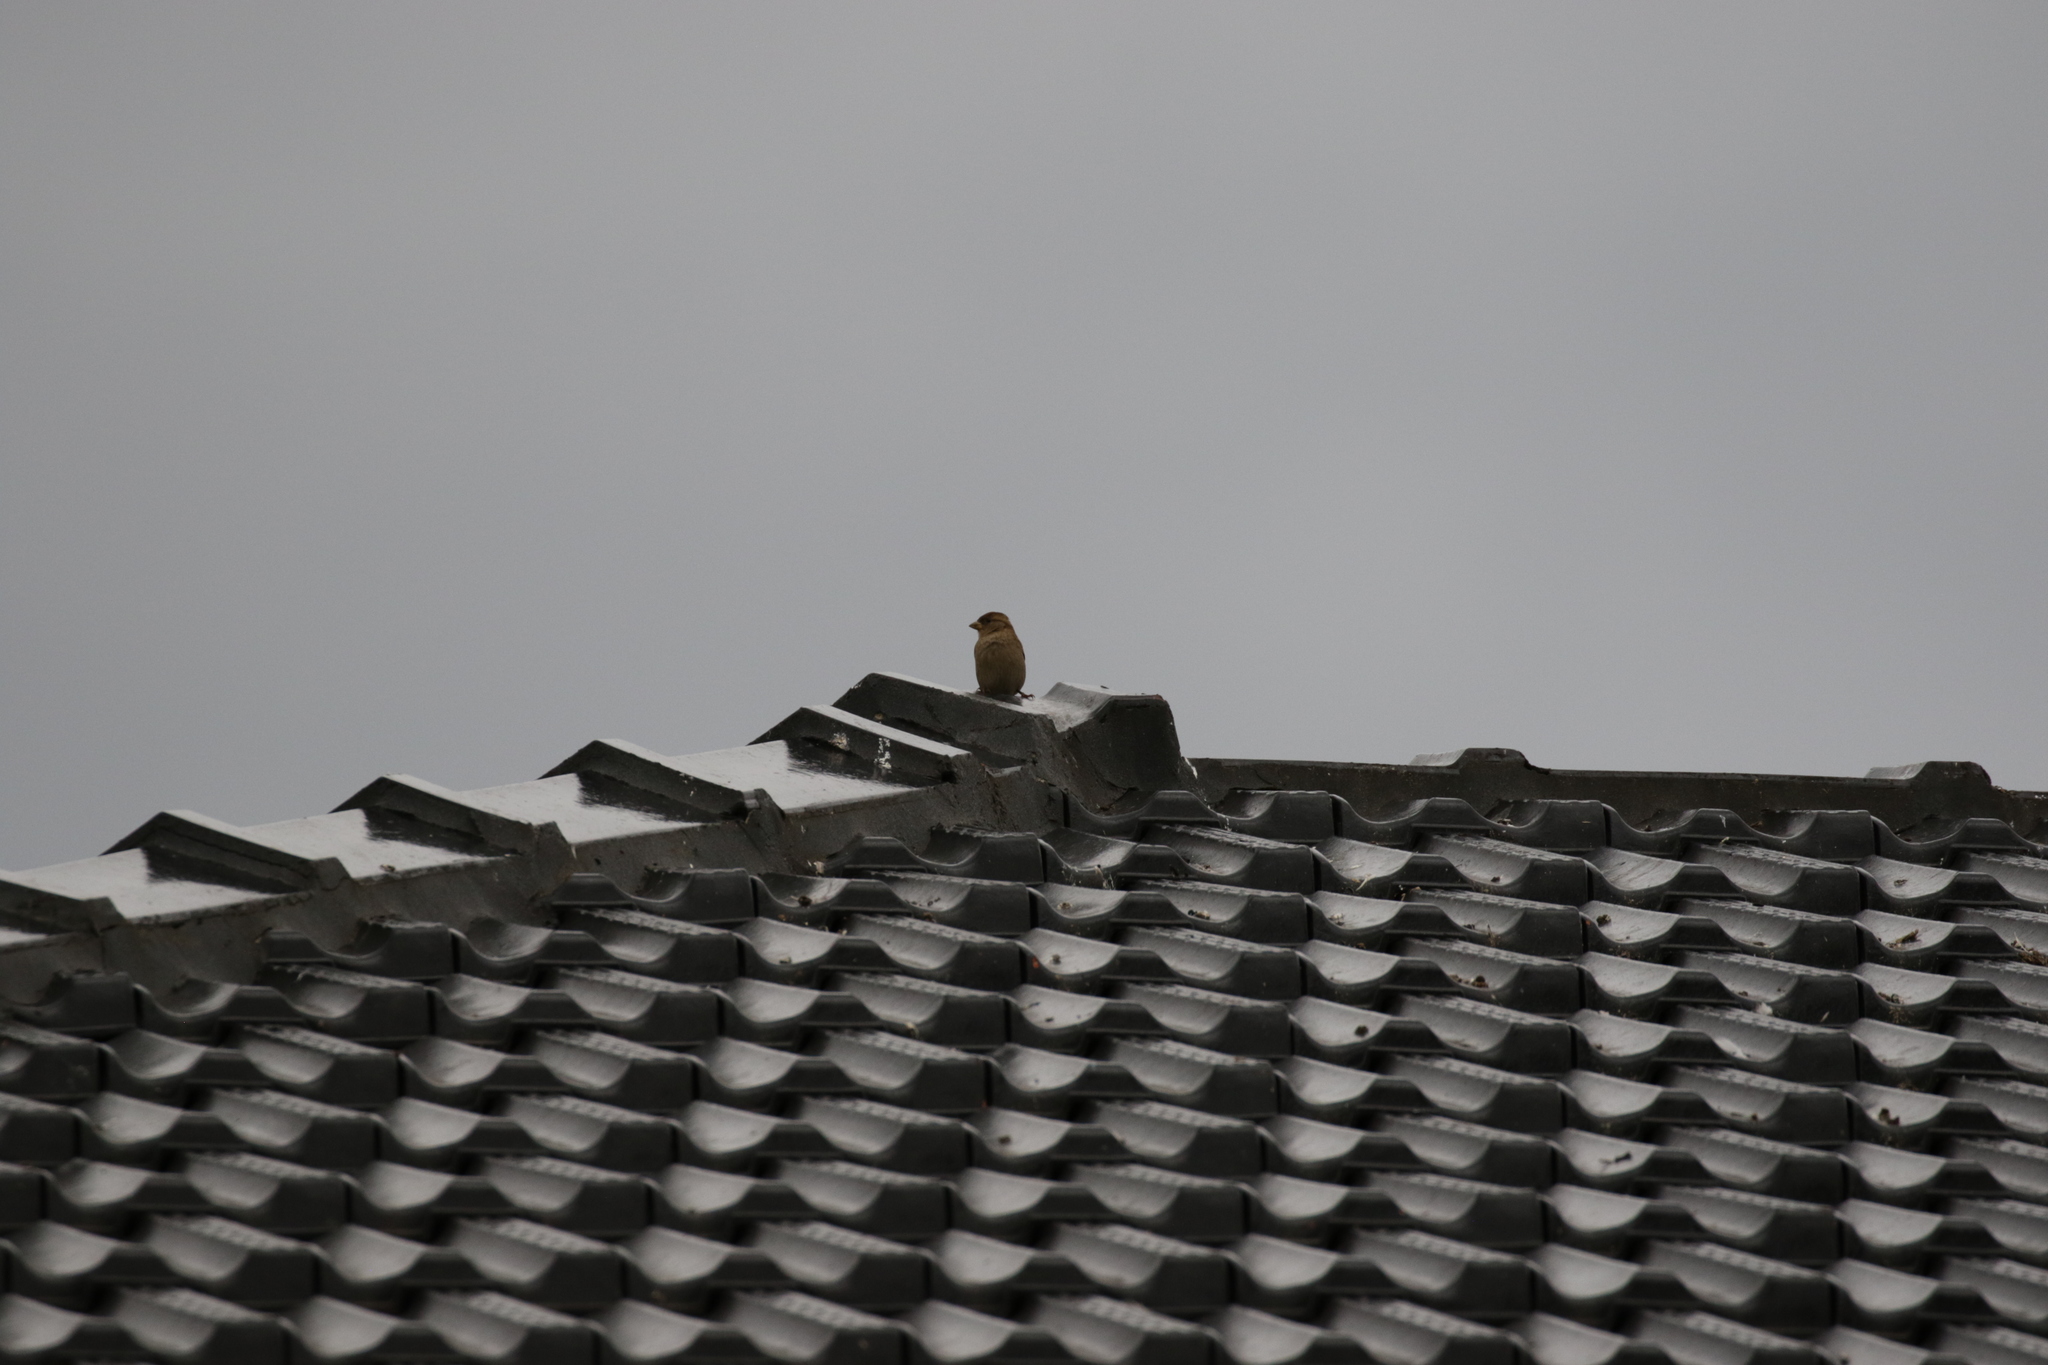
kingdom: Animalia
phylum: Chordata
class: Aves
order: Passeriformes
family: Passeridae
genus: Passer
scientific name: Passer domesticus
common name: House sparrow
